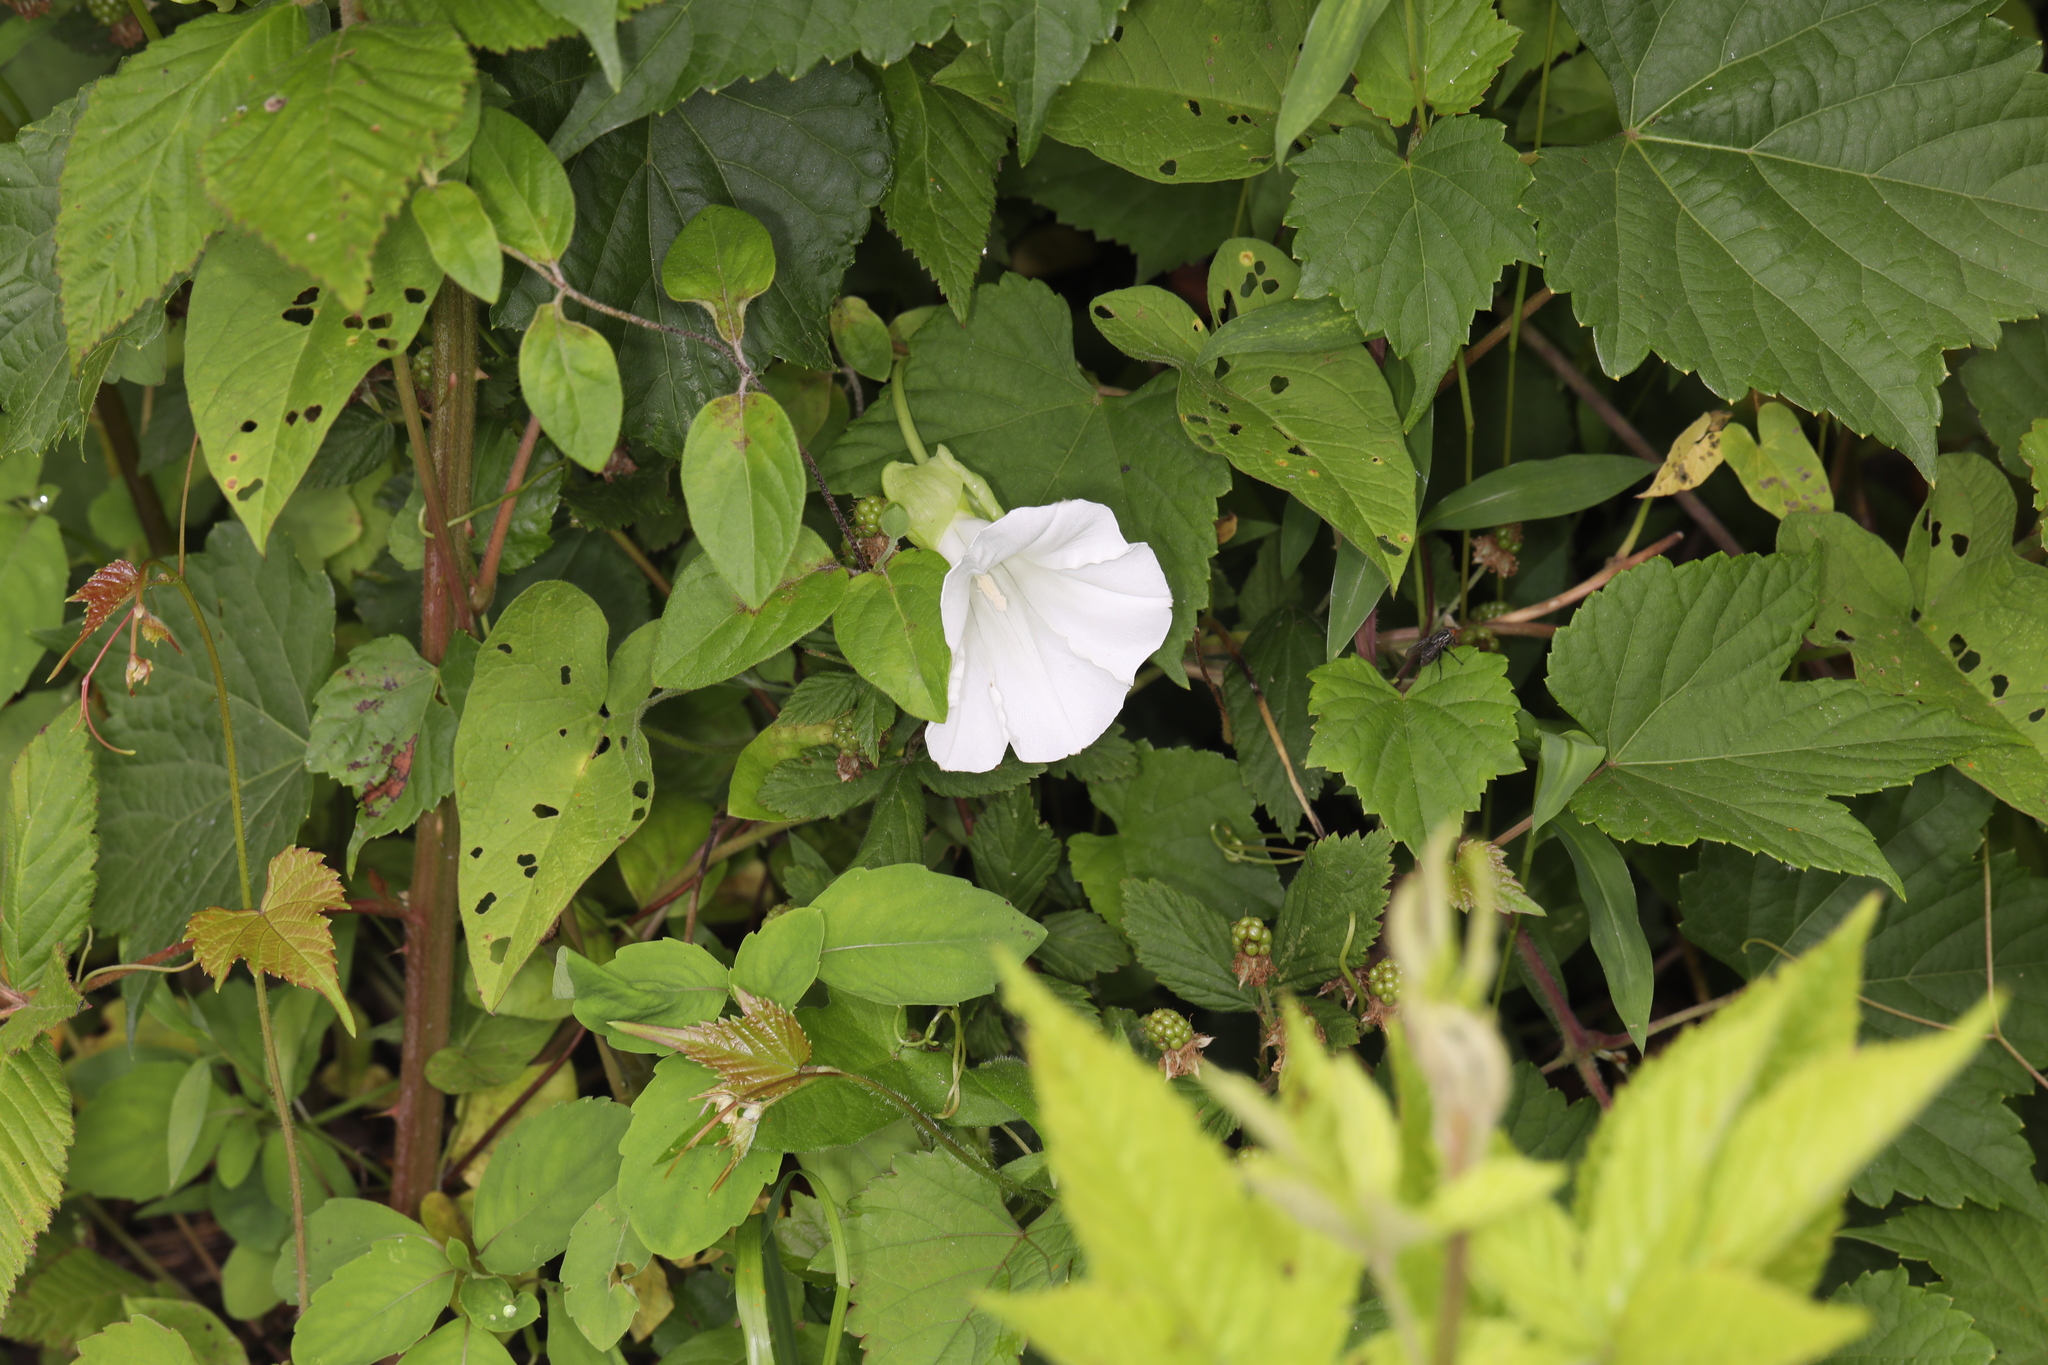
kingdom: Plantae
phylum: Tracheophyta
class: Magnoliopsida
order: Solanales
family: Convolvulaceae
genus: Calystegia
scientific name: Calystegia sepium
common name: Hedge bindweed
